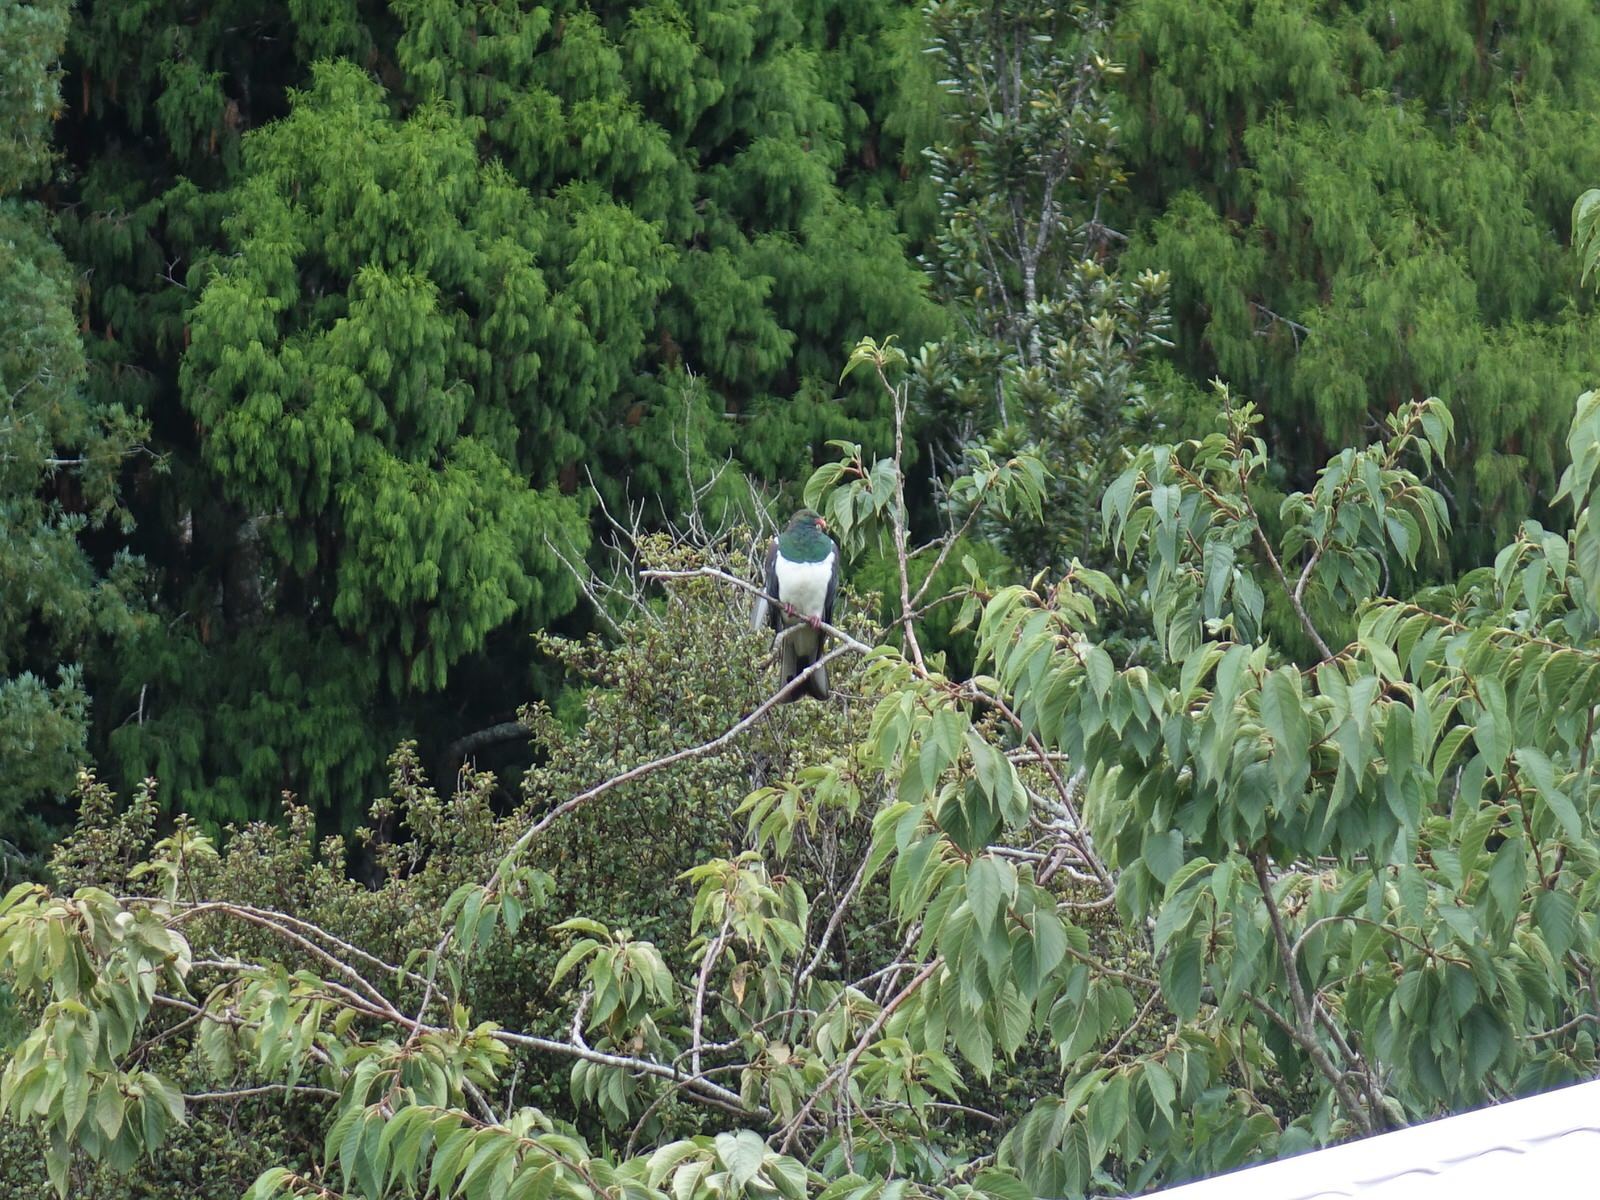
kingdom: Animalia
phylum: Chordata
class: Aves
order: Columbiformes
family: Columbidae
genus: Hemiphaga
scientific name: Hemiphaga novaeseelandiae
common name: New zealand pigeon
